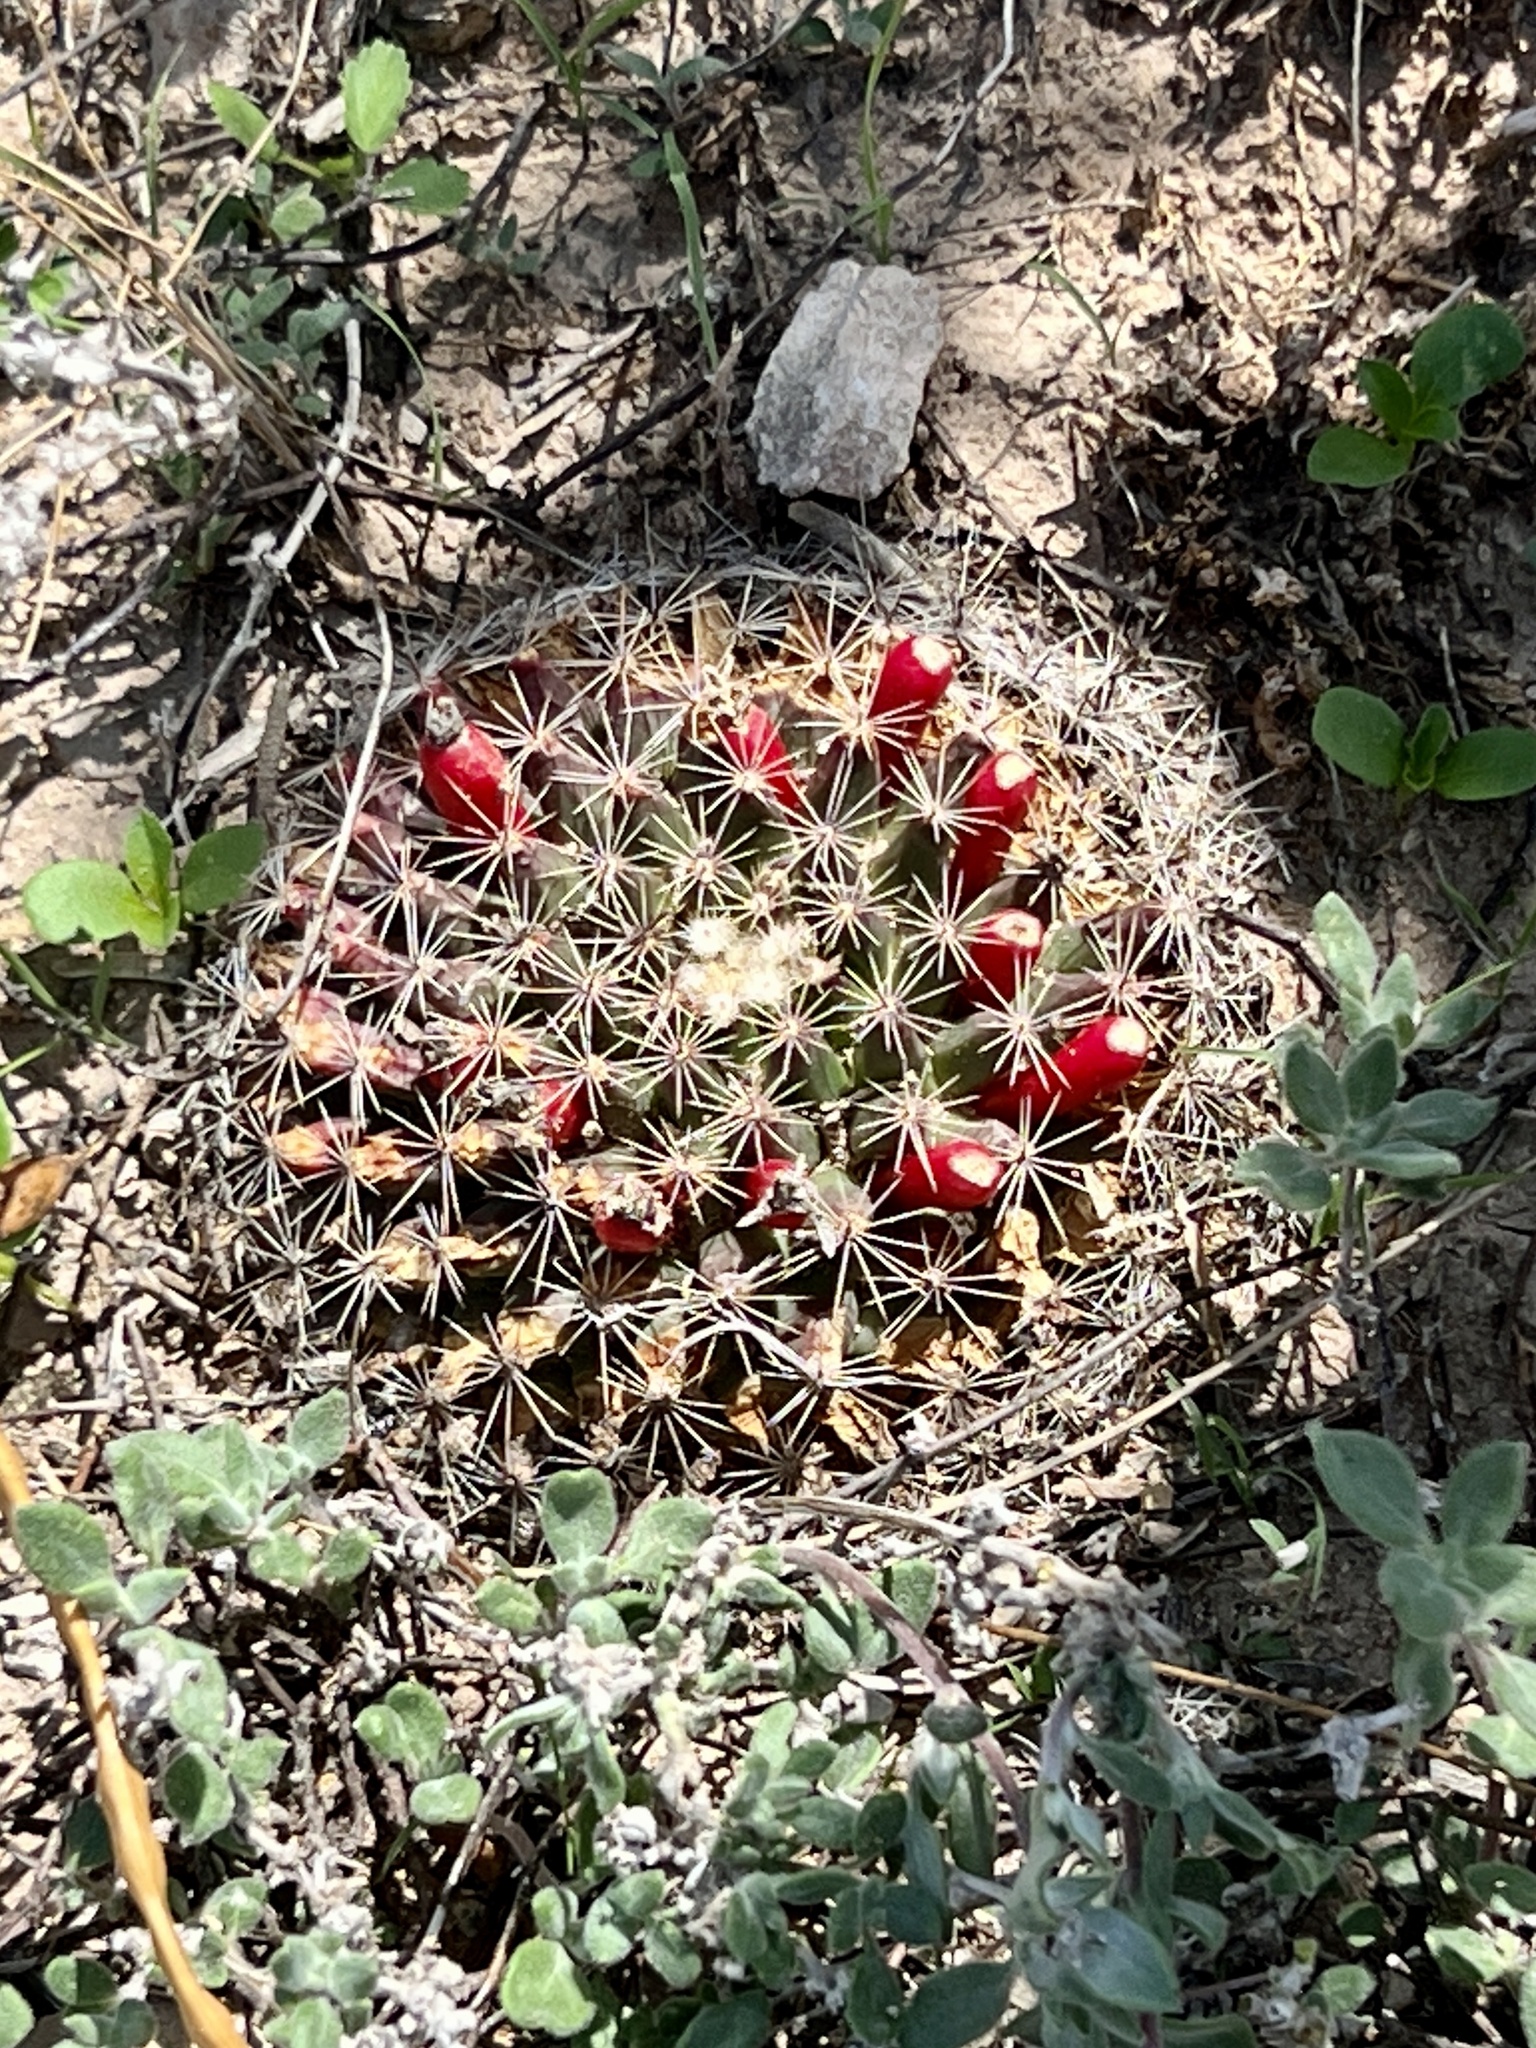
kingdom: Plantae
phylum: Tracheophyta
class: Magnoliopsida
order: Caryophyllales
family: Cactaceae
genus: Mammillaria
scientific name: Mammillaria heyderi
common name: Little nipple cactus
